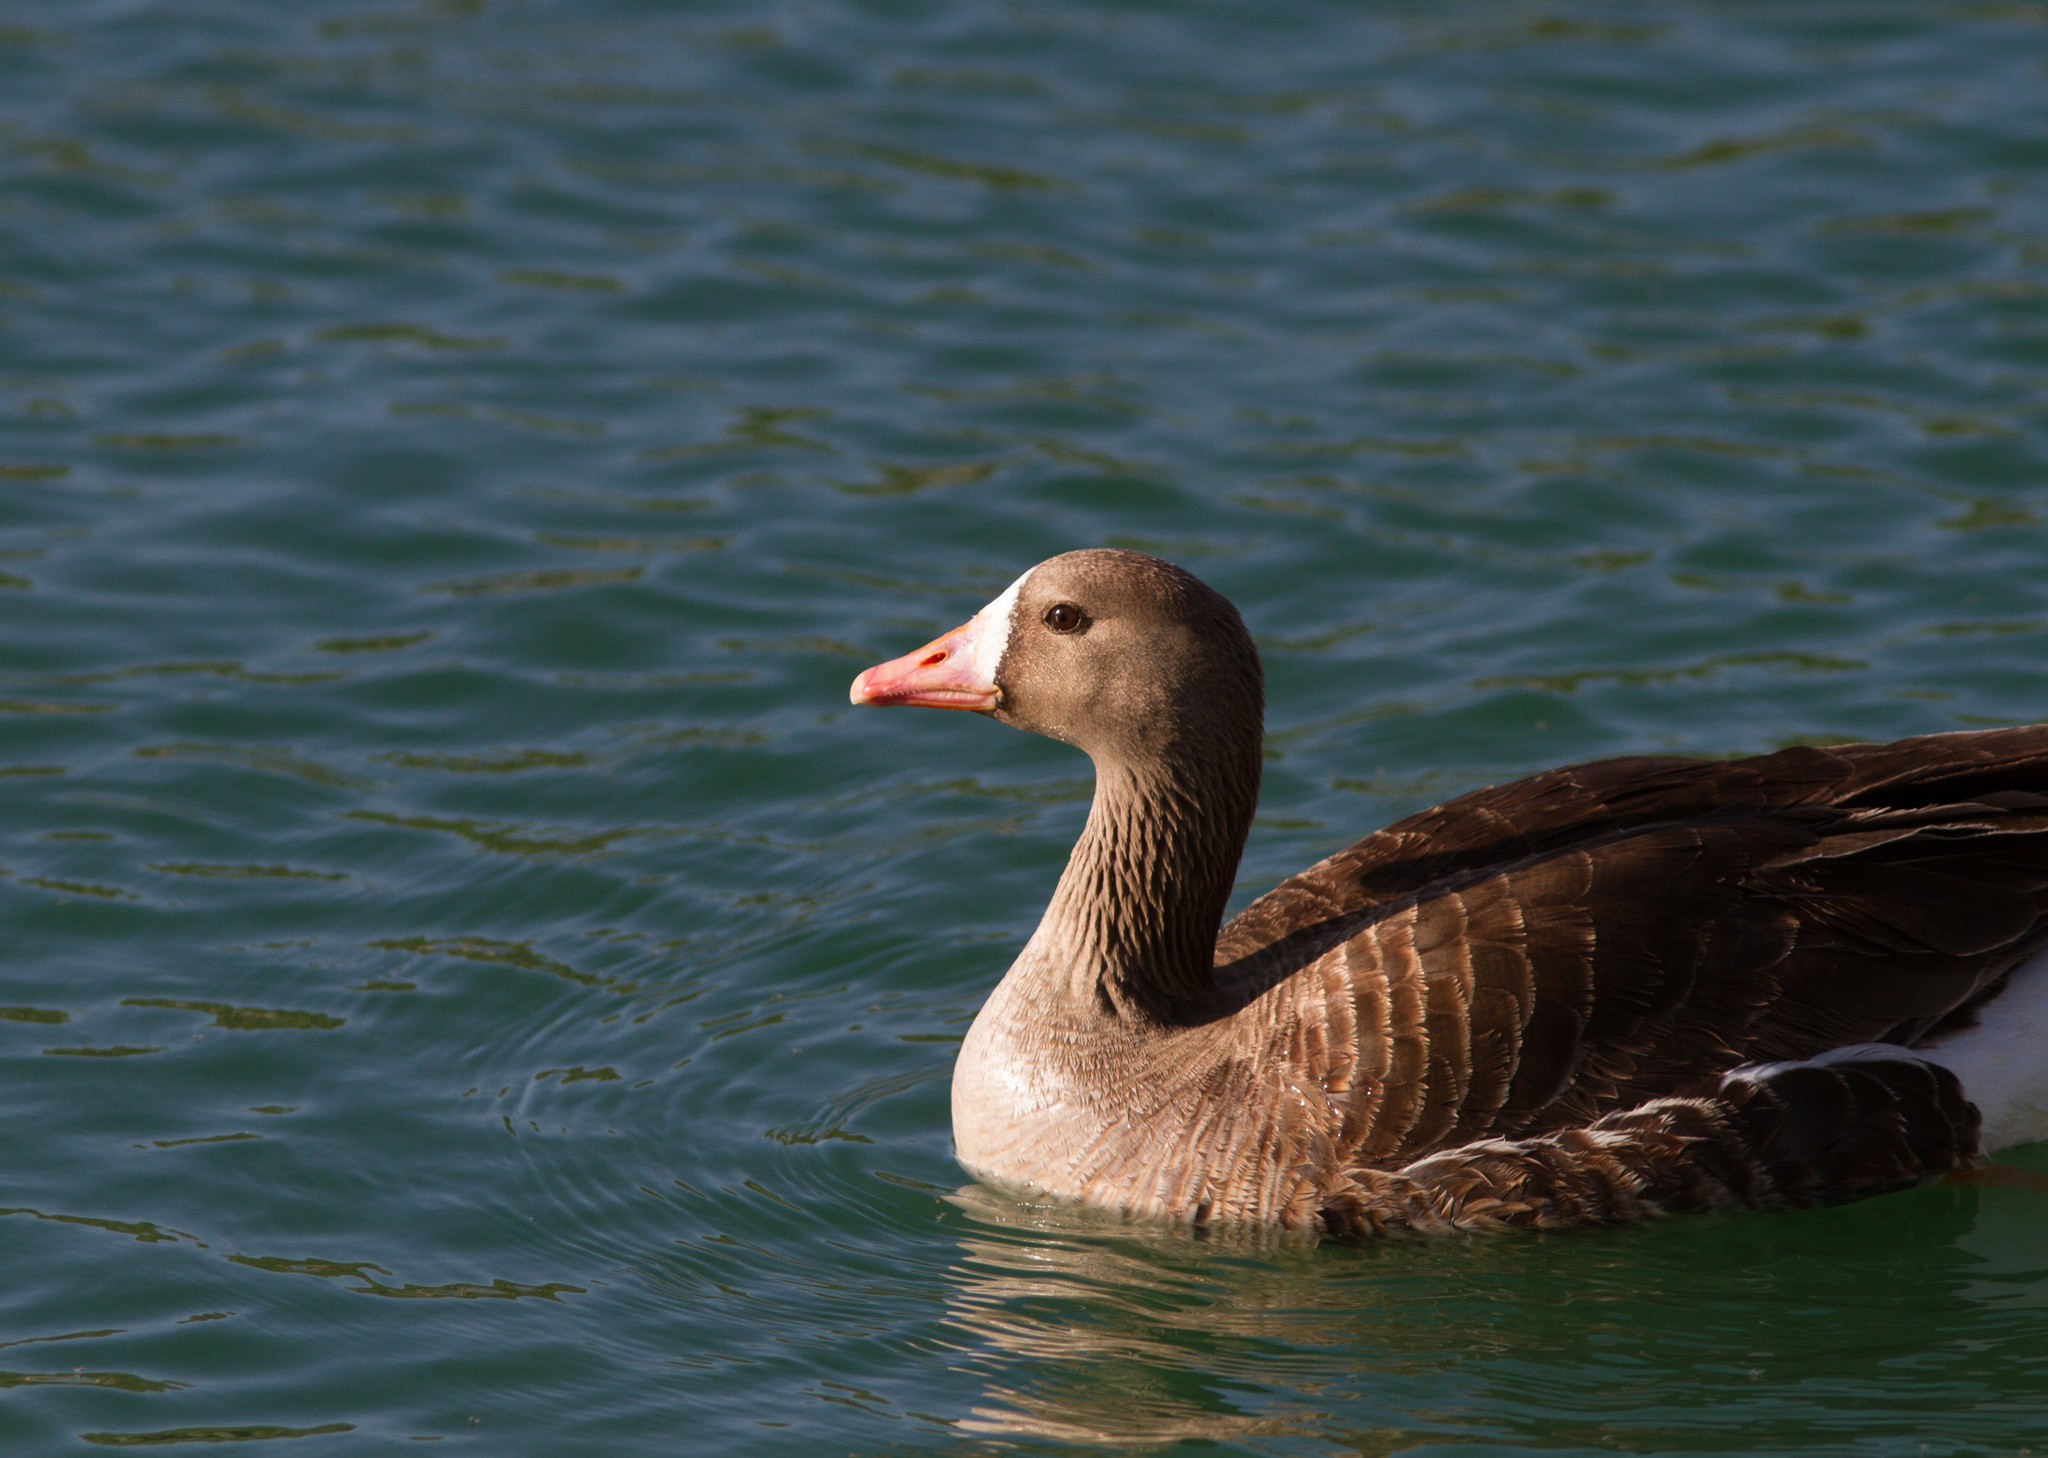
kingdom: Animalia
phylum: Chordata
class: Aves
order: Anseriformes
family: Anatidae
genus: Anser
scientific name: Anser albifrons
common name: Greater white-fronted goose
